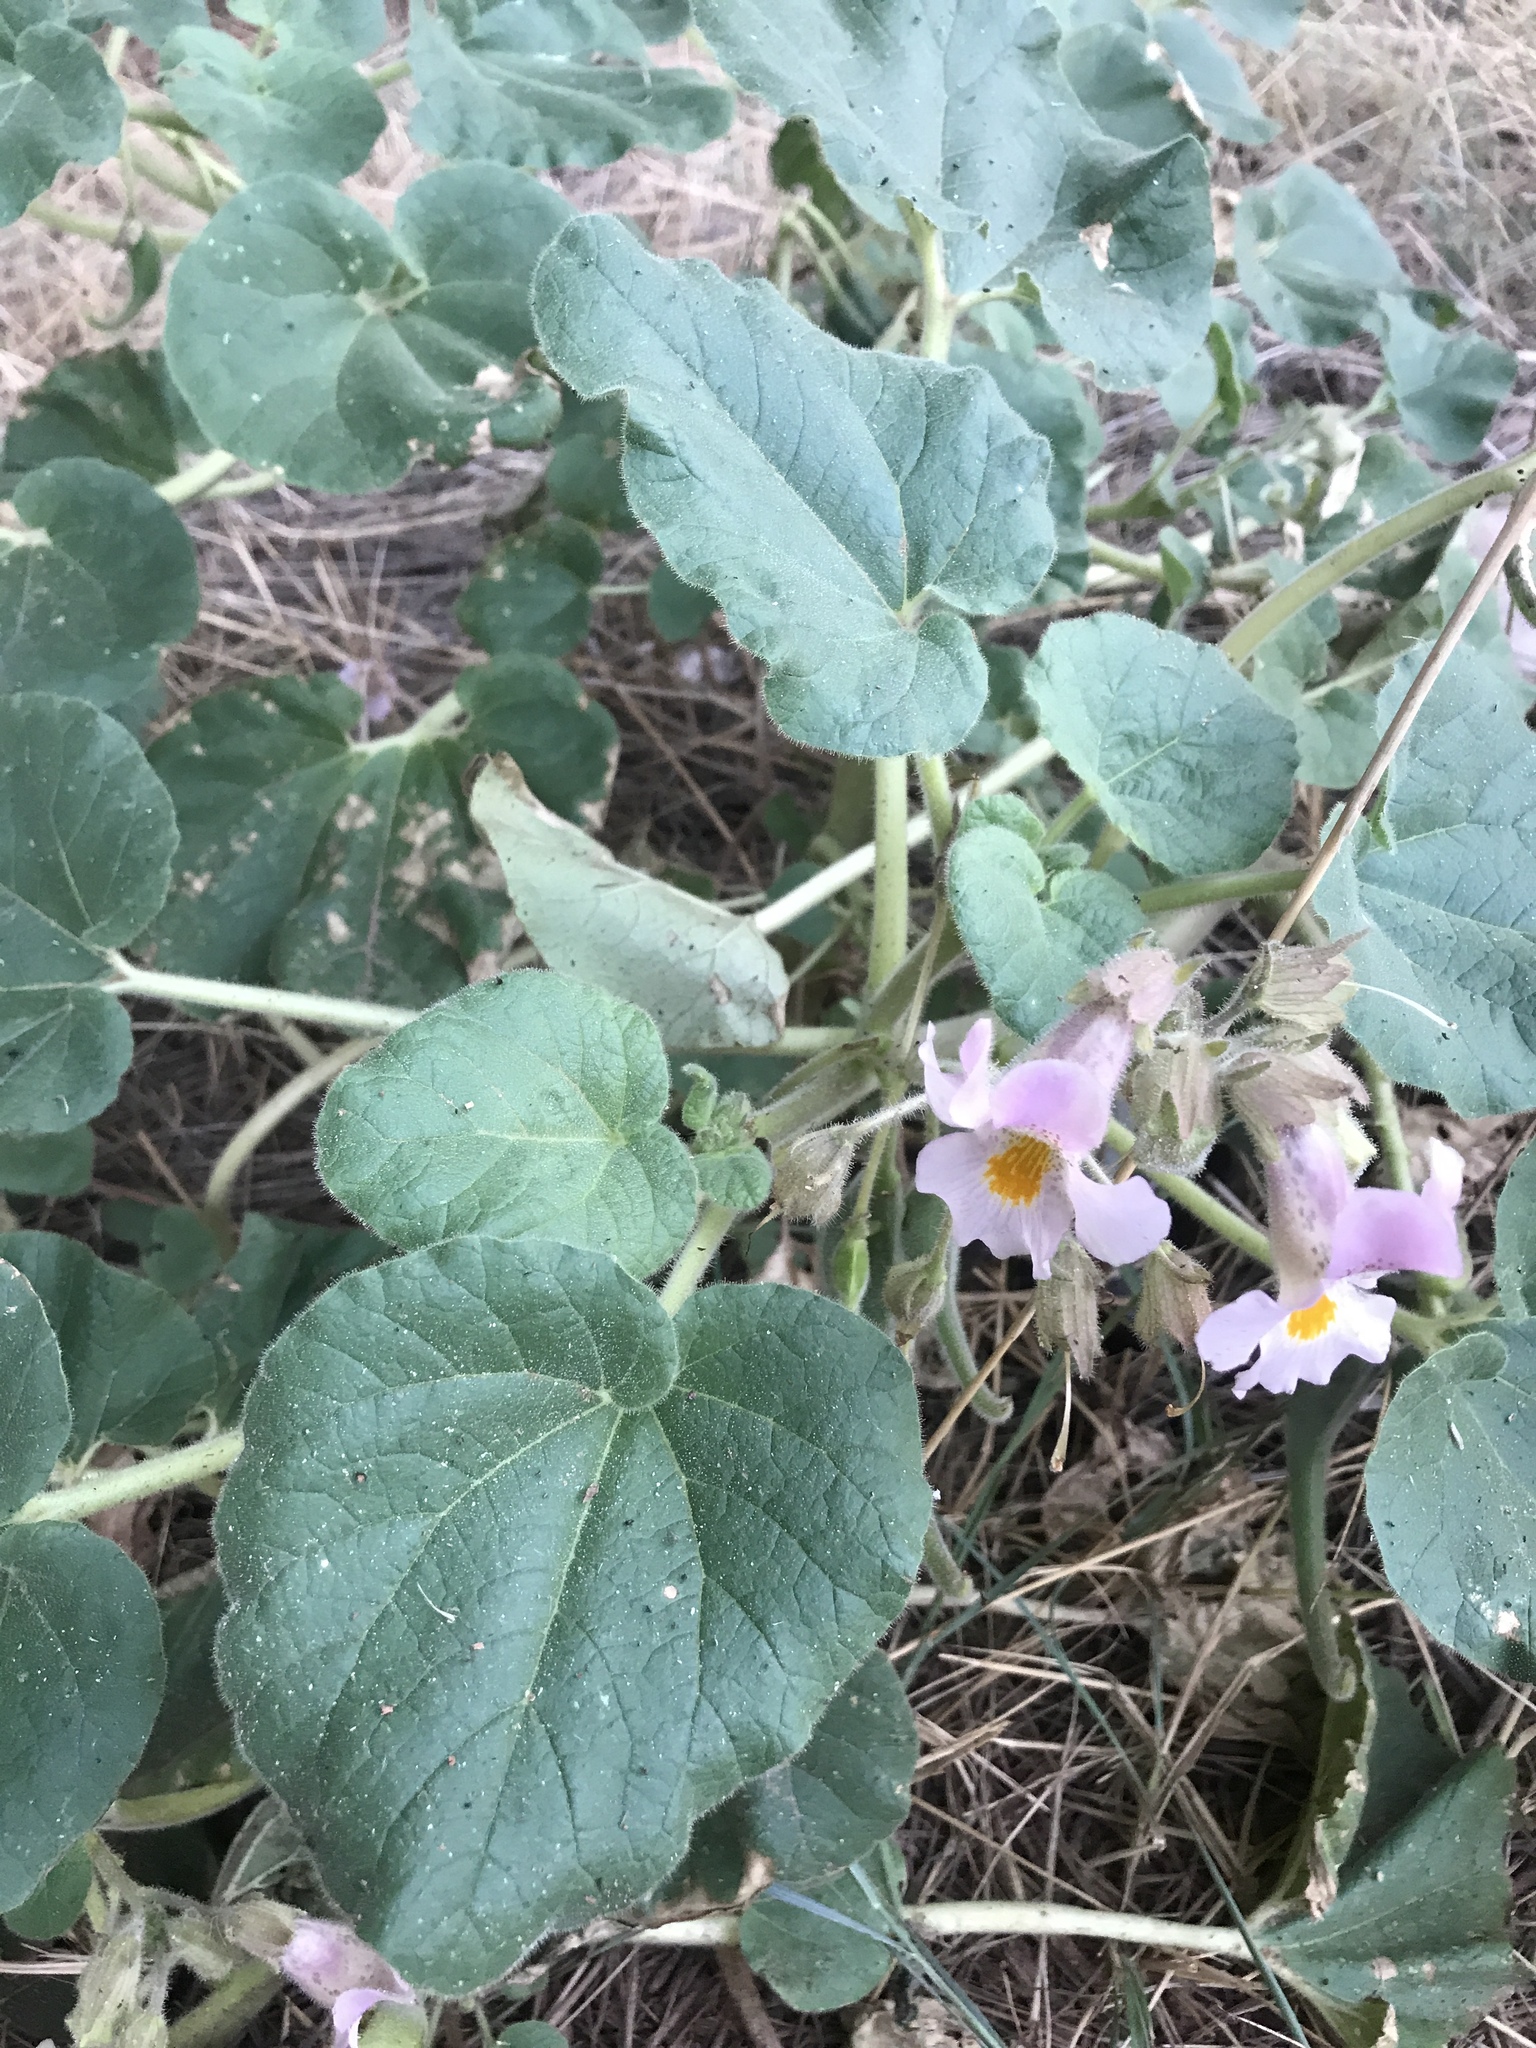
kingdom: Plantae
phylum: Tracheophyta
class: Magnoliopsida
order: Lamiales
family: Martyniaceae
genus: Proboscidea
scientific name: Proboscidea louisianica
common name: Elephant tusks
